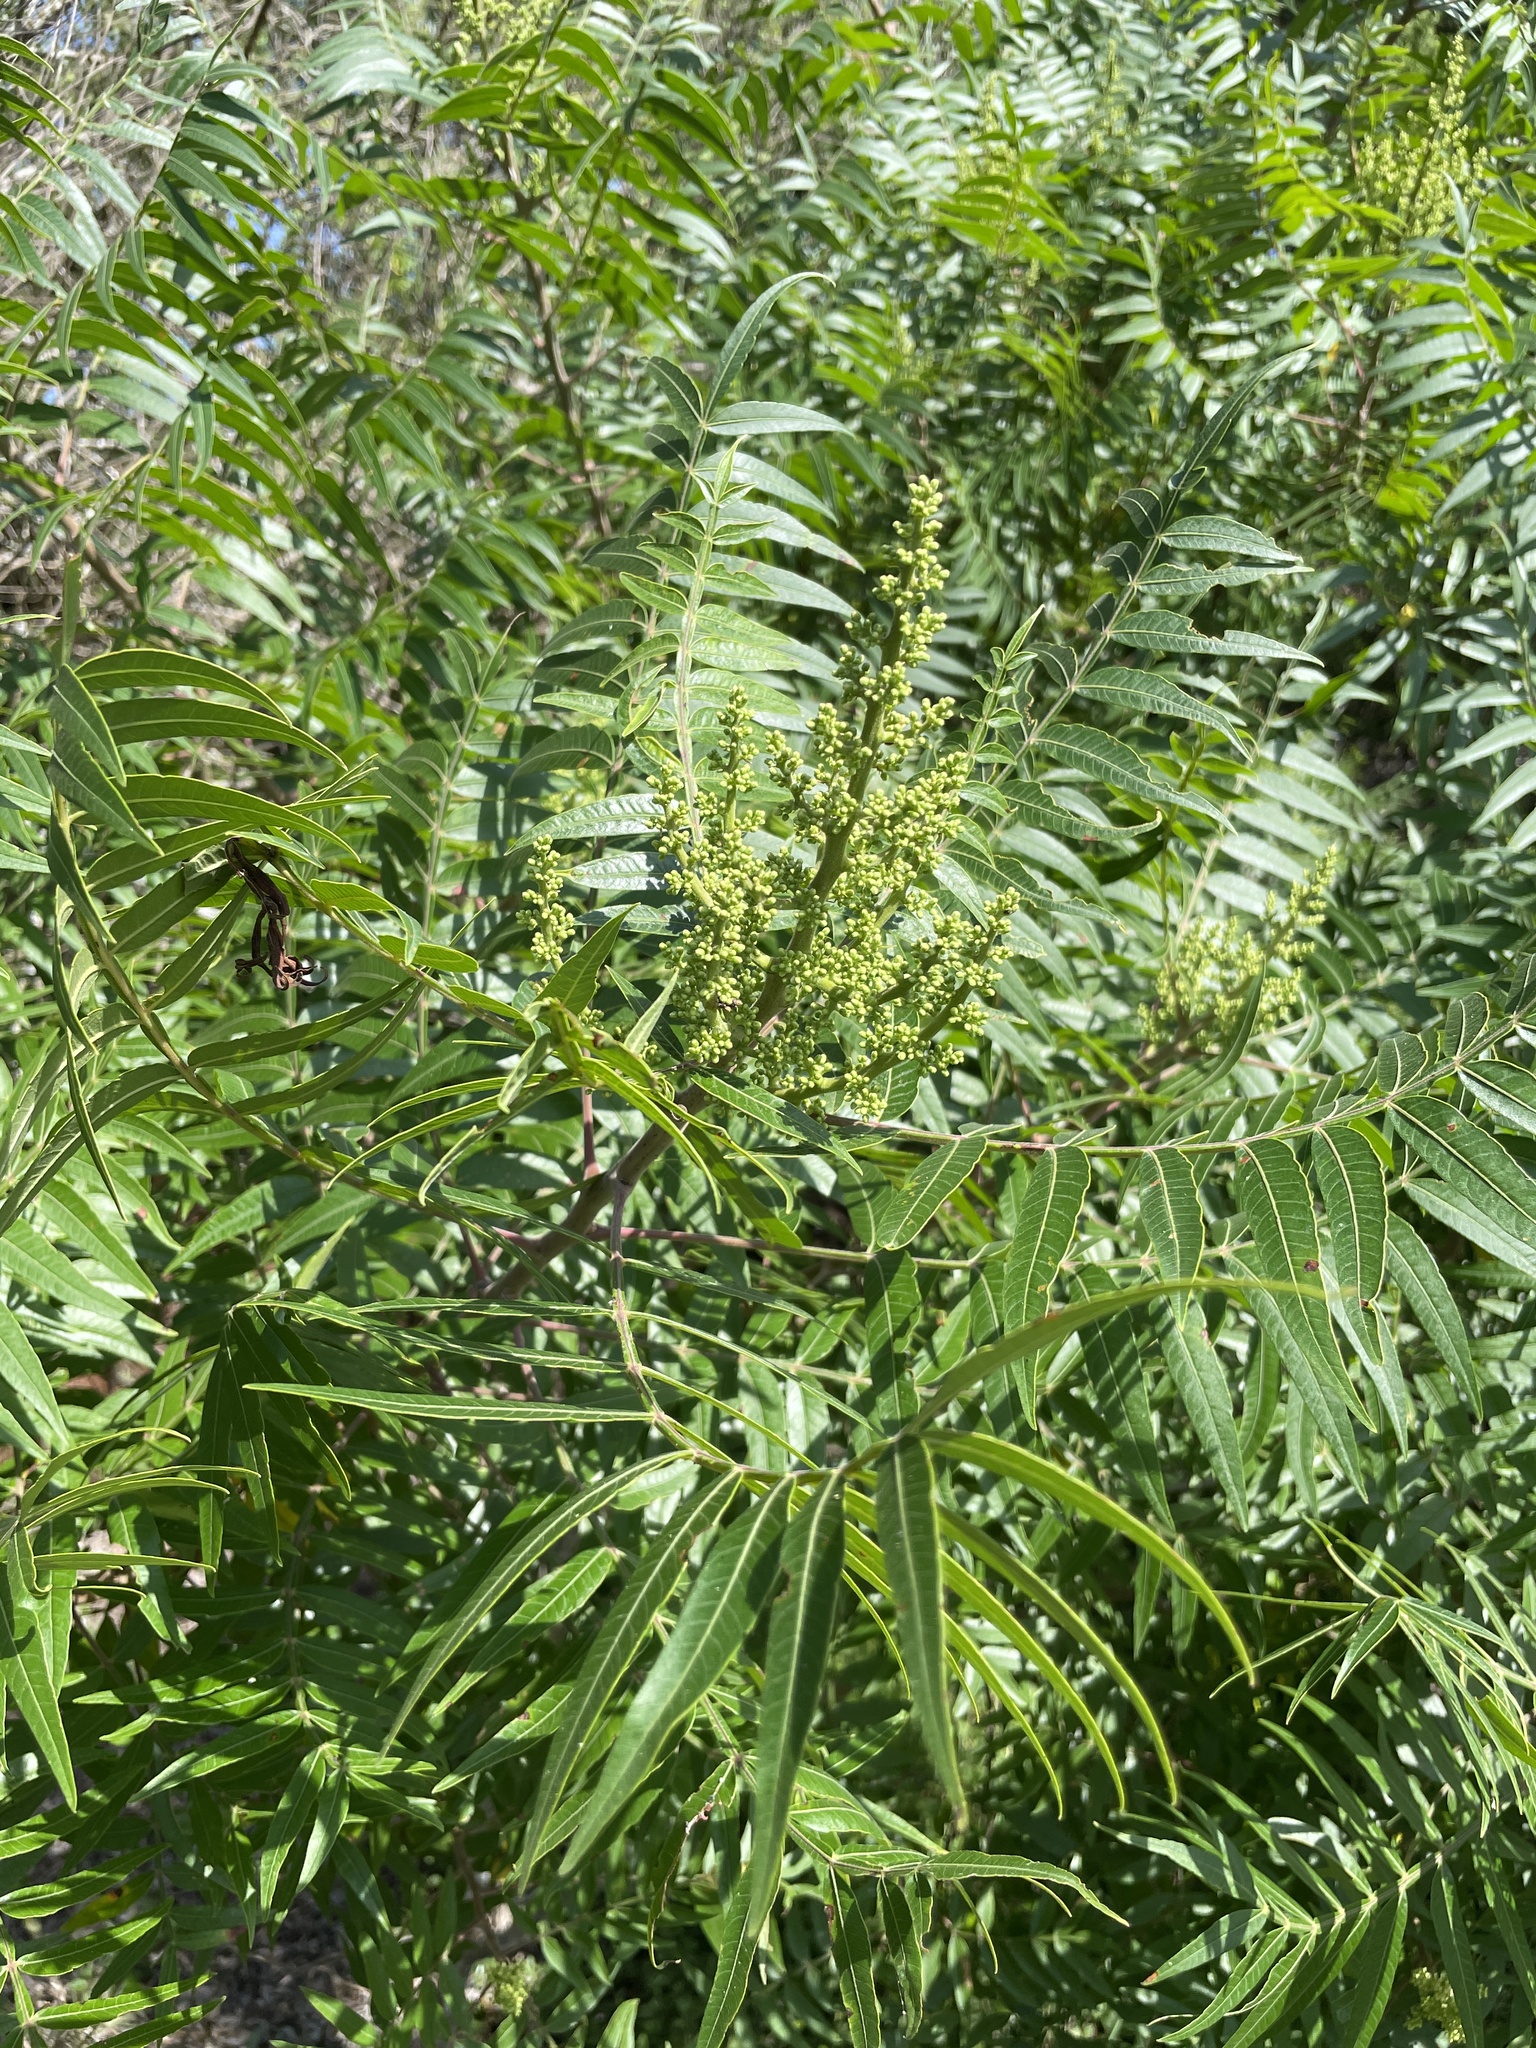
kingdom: Plantae
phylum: Tracheophyta
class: Magnoliopsida
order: Sapindales
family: Anacardiaceae
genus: Rhus
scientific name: Rhus lanceolata
